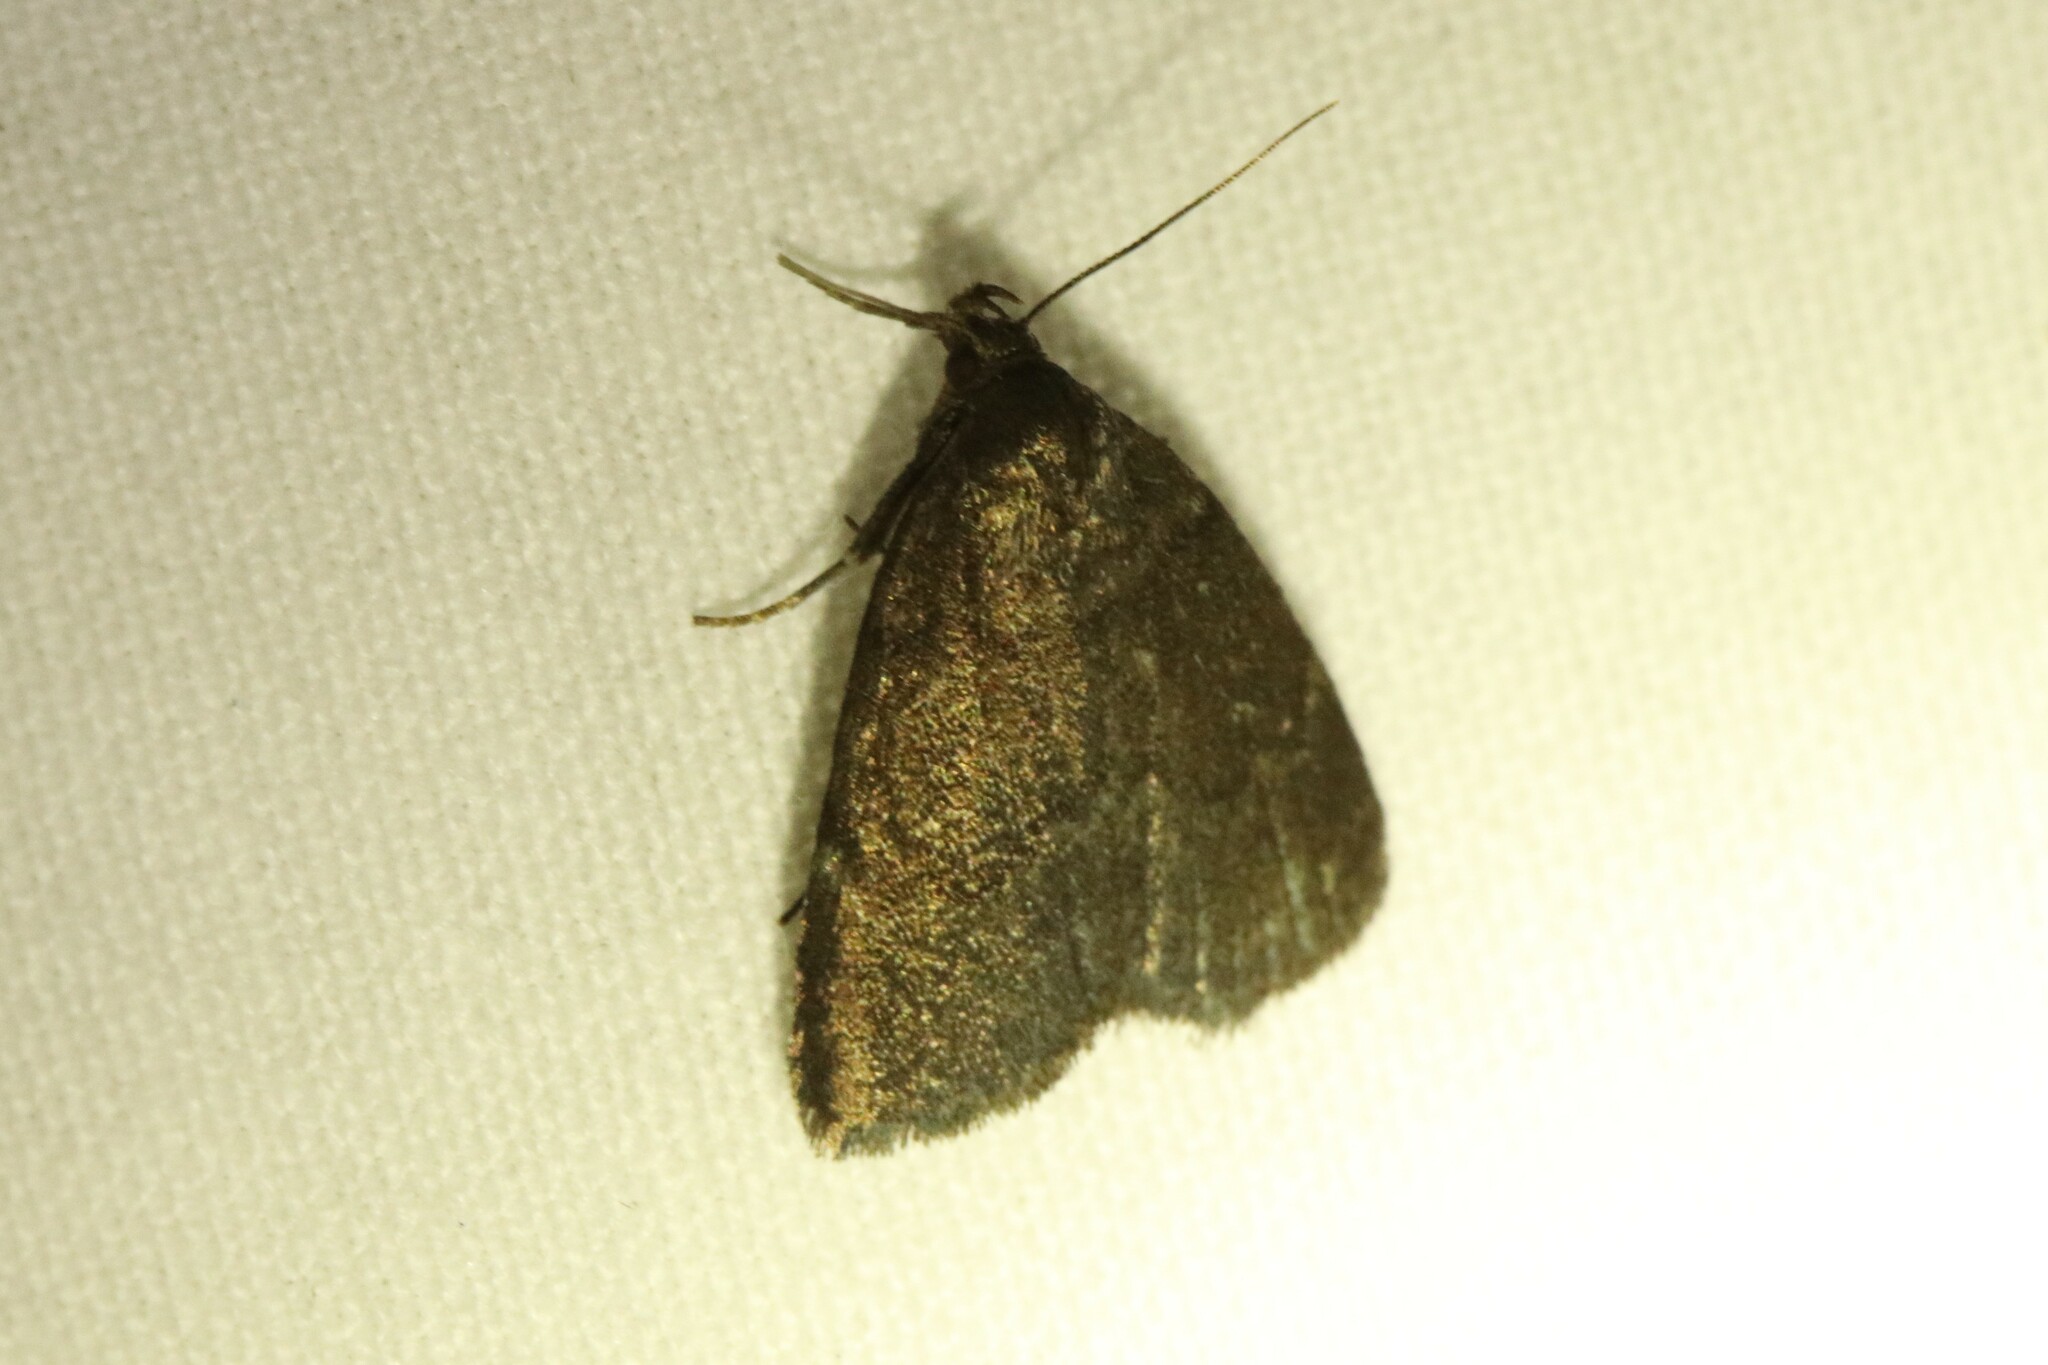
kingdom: Animalia
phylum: Arthropoda
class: Insecta
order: Lepidoptera
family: Erebidae
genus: Idia
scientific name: Idia rotundalis
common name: Rotund idia moth
